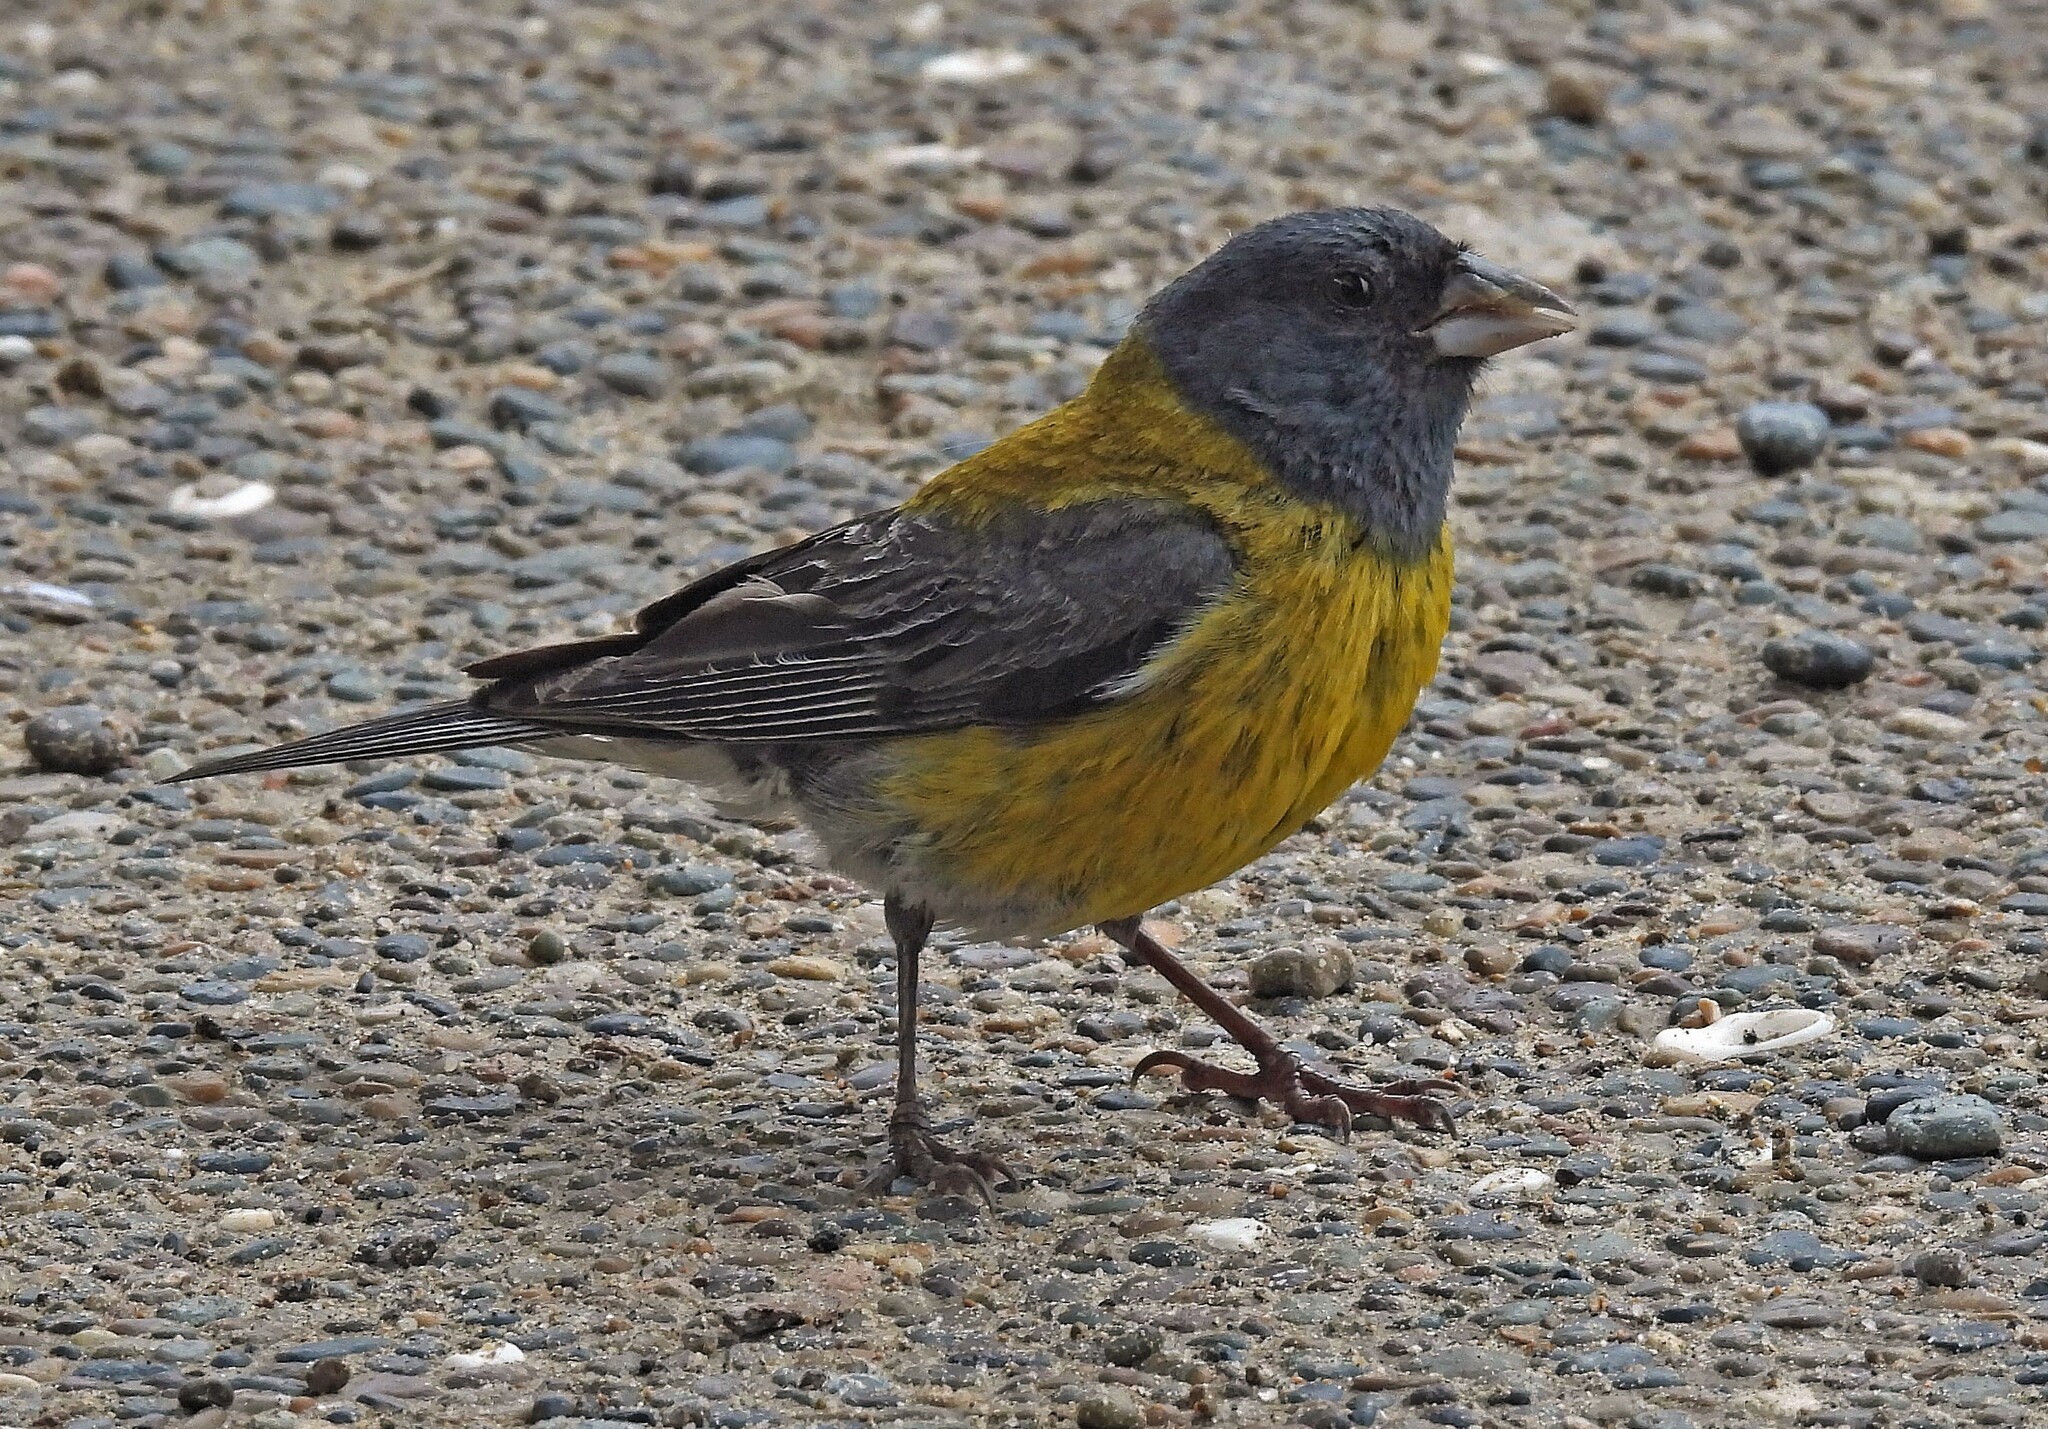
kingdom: Animalia
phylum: Chordata
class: Aves
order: Passeriformes
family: Thraupidae
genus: Phrygilus
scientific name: Phrygilus gayi
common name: Grey-hooded sierra finch
